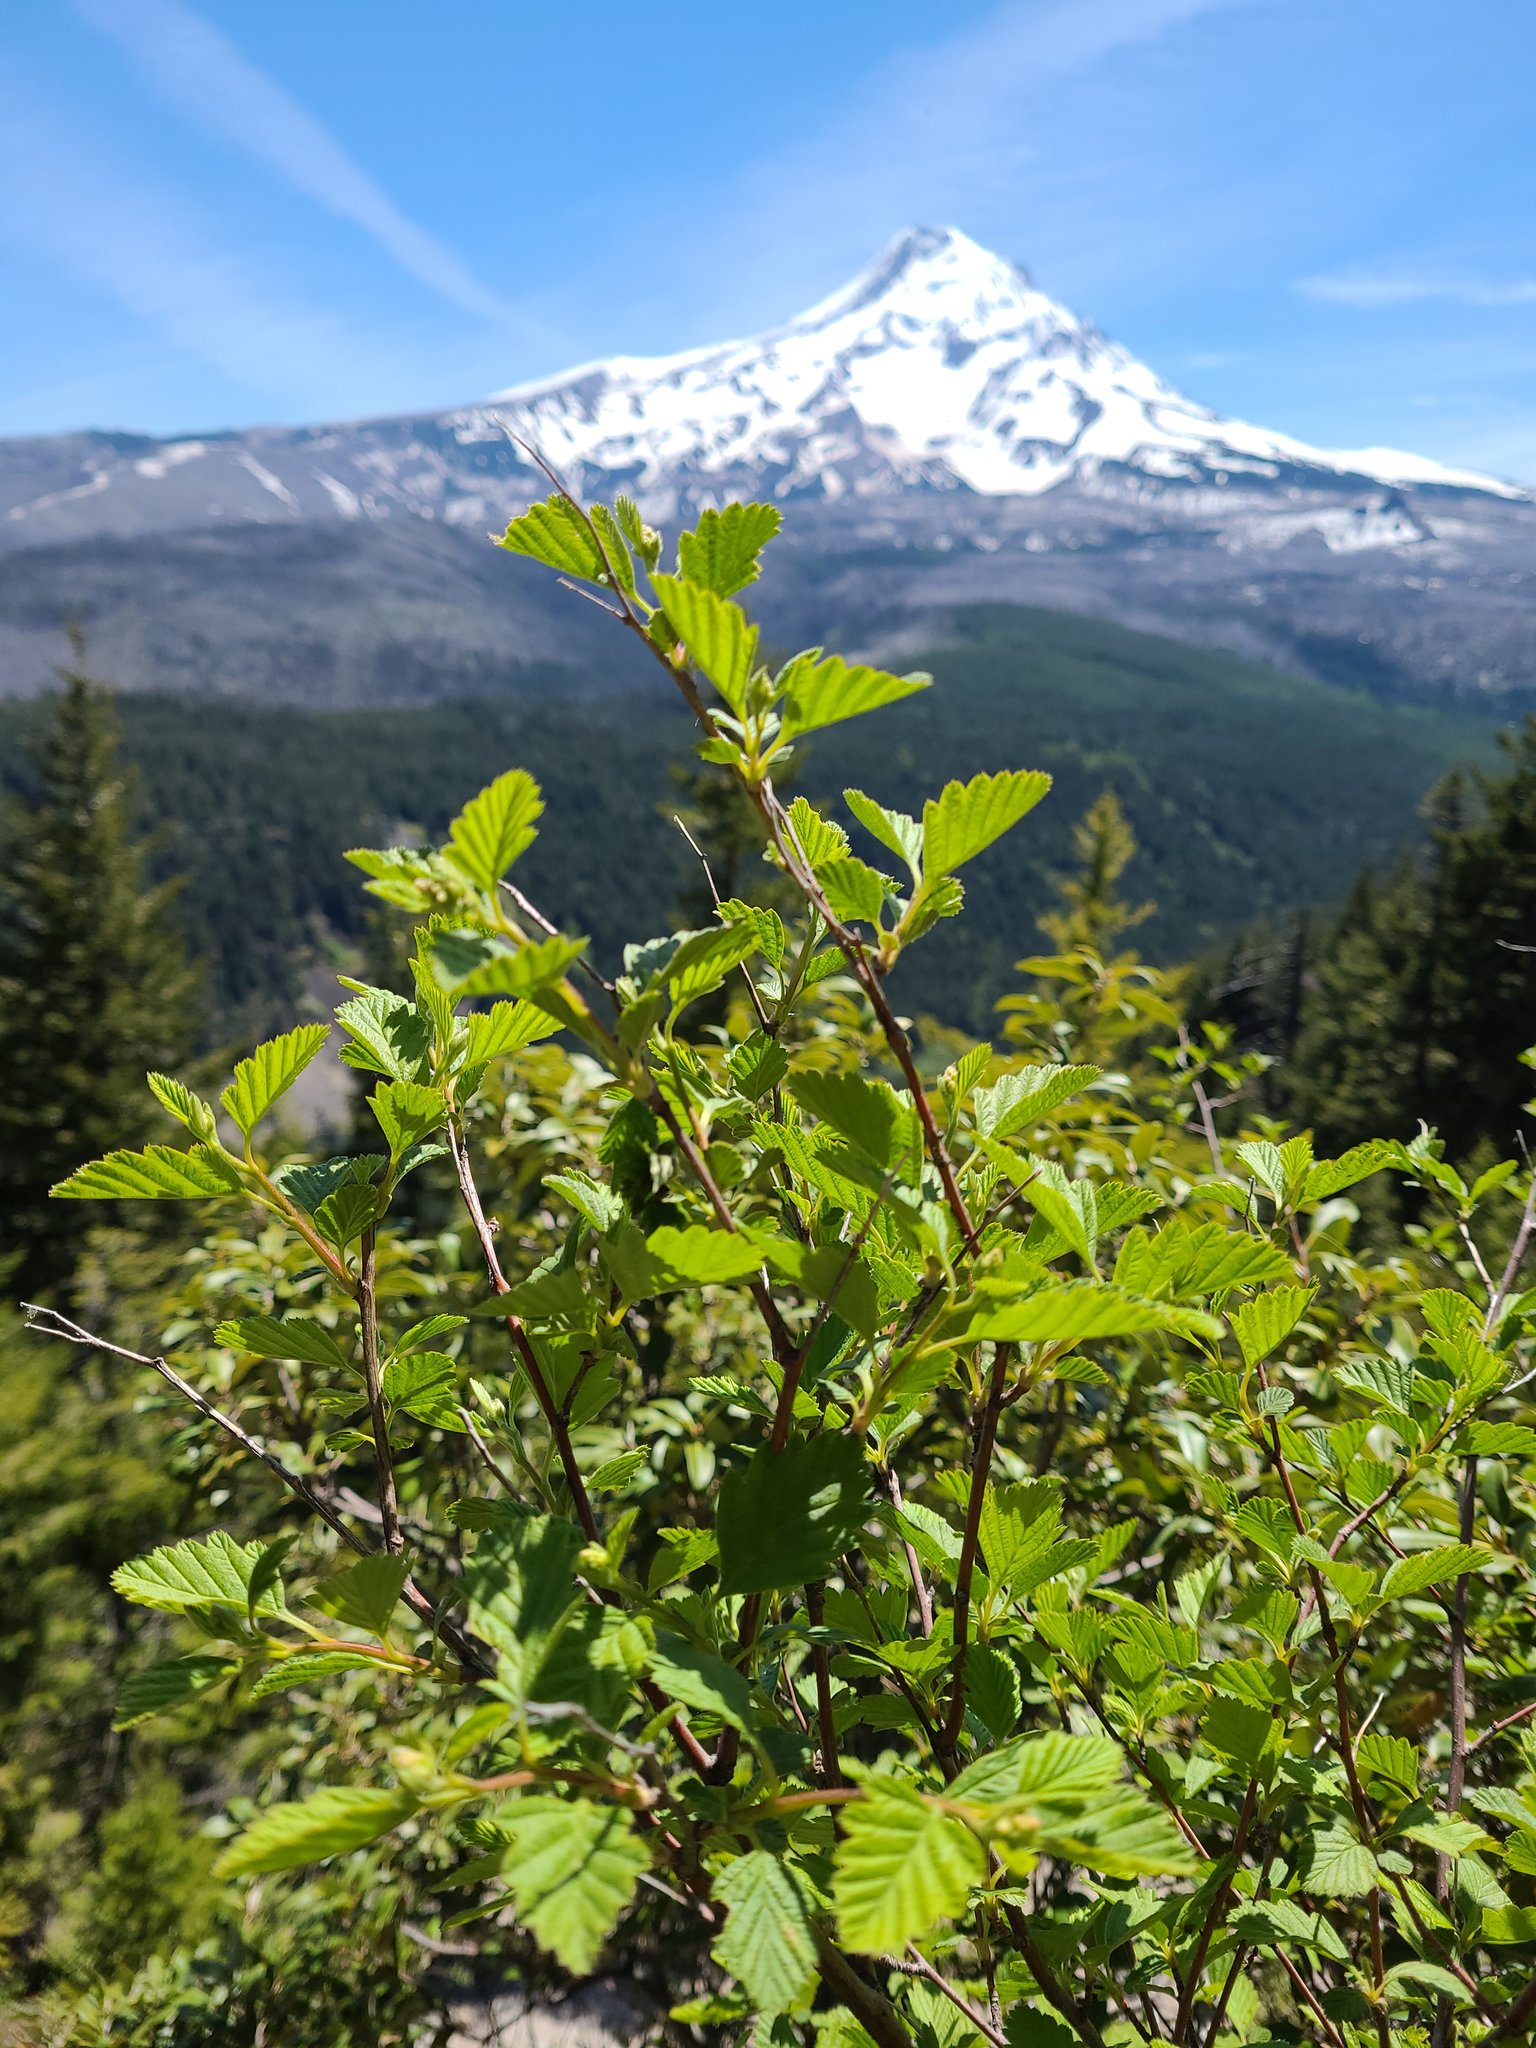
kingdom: Plantae
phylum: Tracheophyta
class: Magnoliopsida
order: Rosales
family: Rosaceae
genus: Holodiscus
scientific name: Holodiscus discolor
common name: Oceanspray
